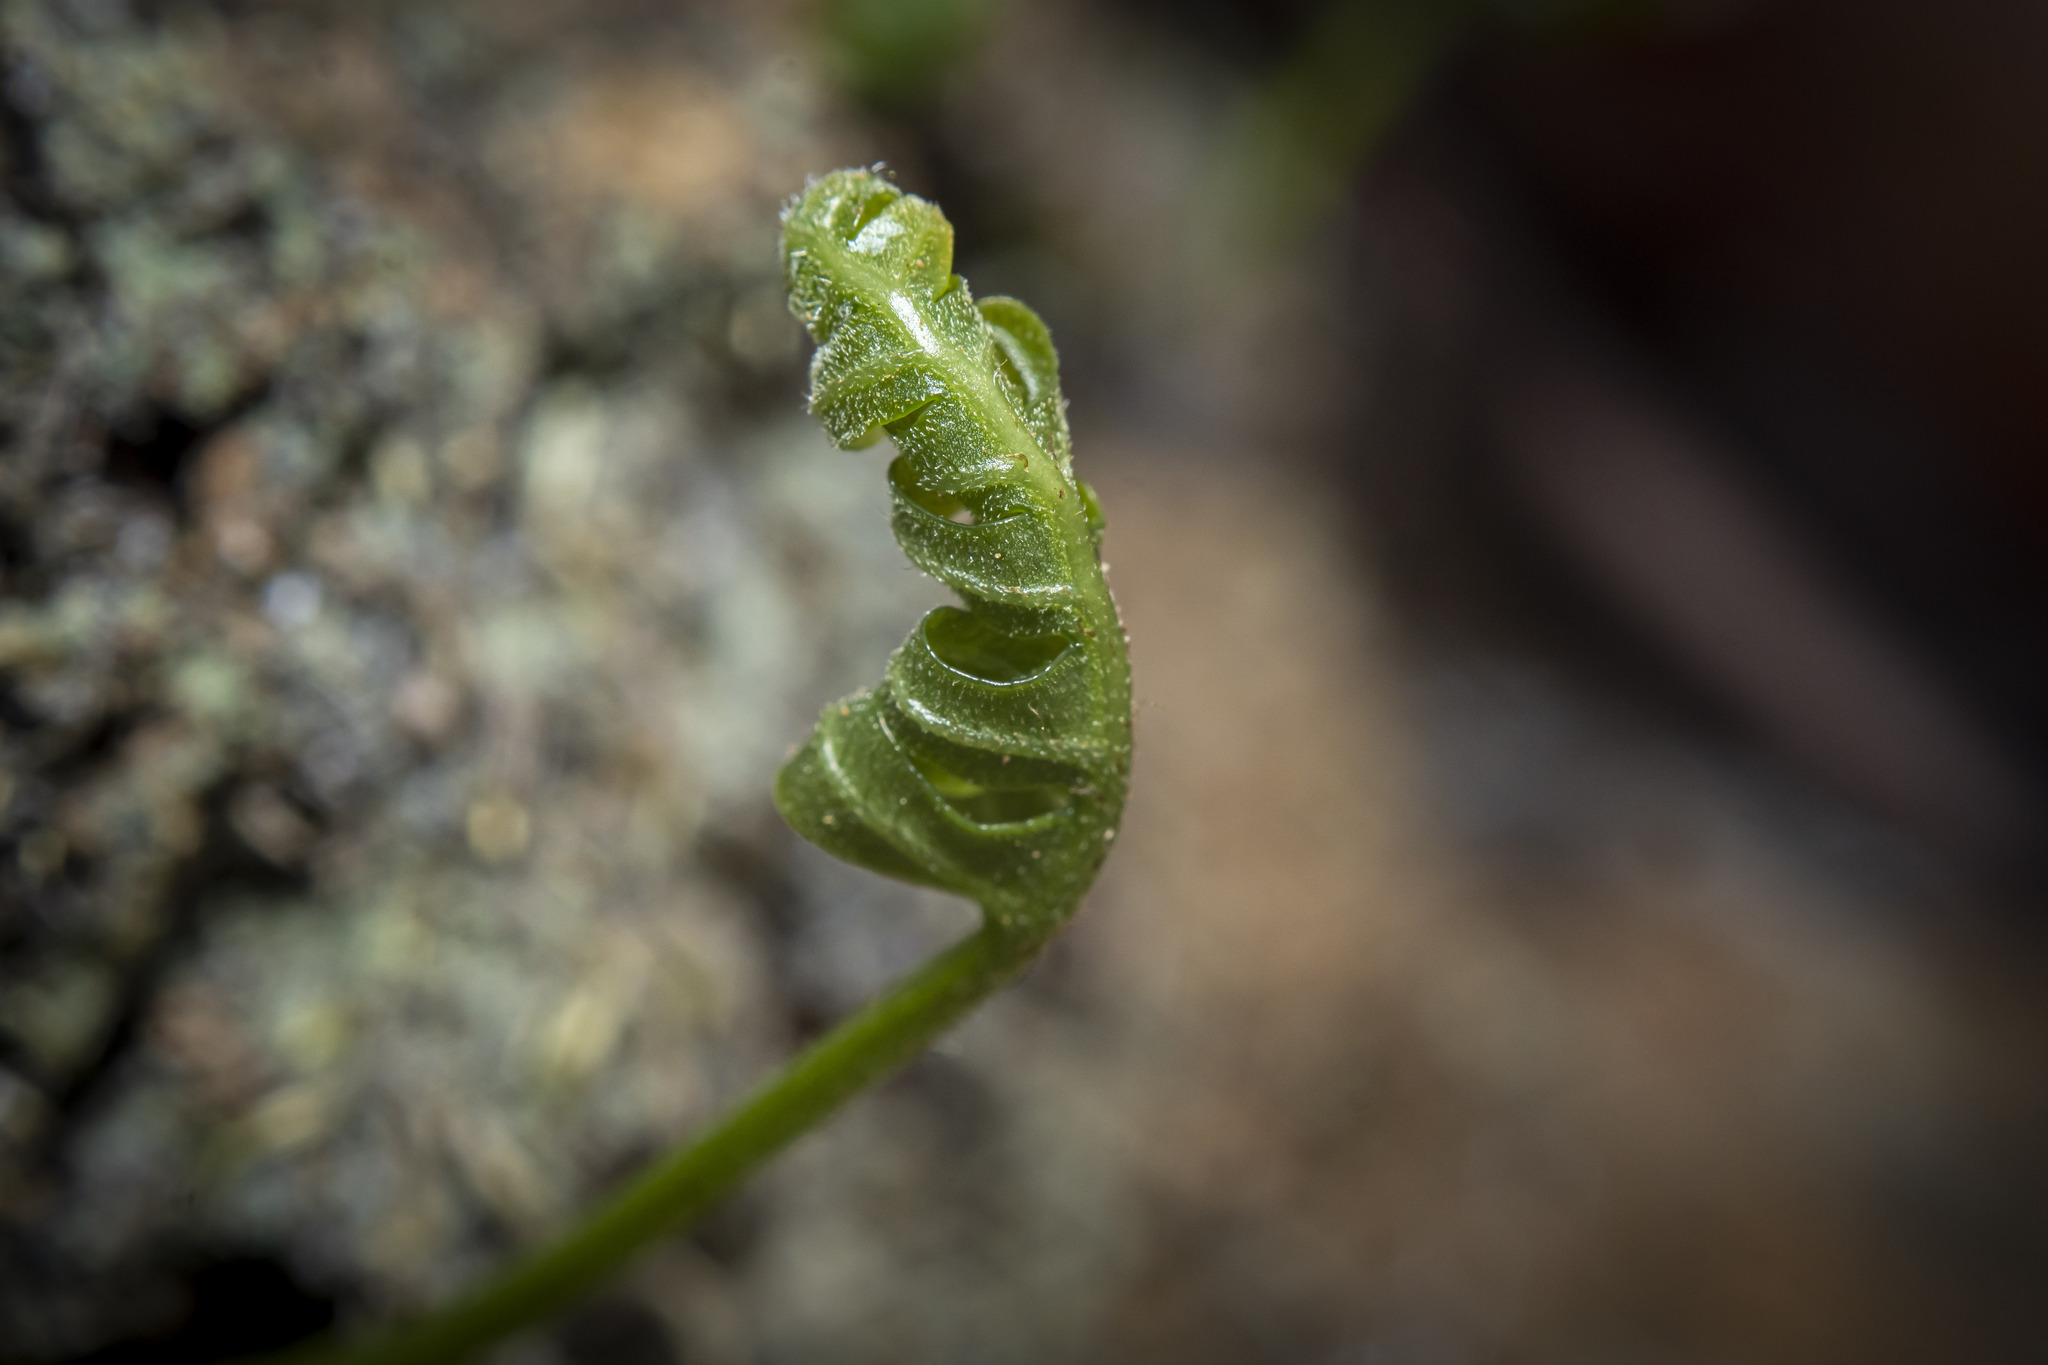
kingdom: Plantae
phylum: Tracheophyta
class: Polypodiopsida
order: Polypodiales
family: Polypodiaceae
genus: Polypodium
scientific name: Polypodium californicum
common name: California polypody
